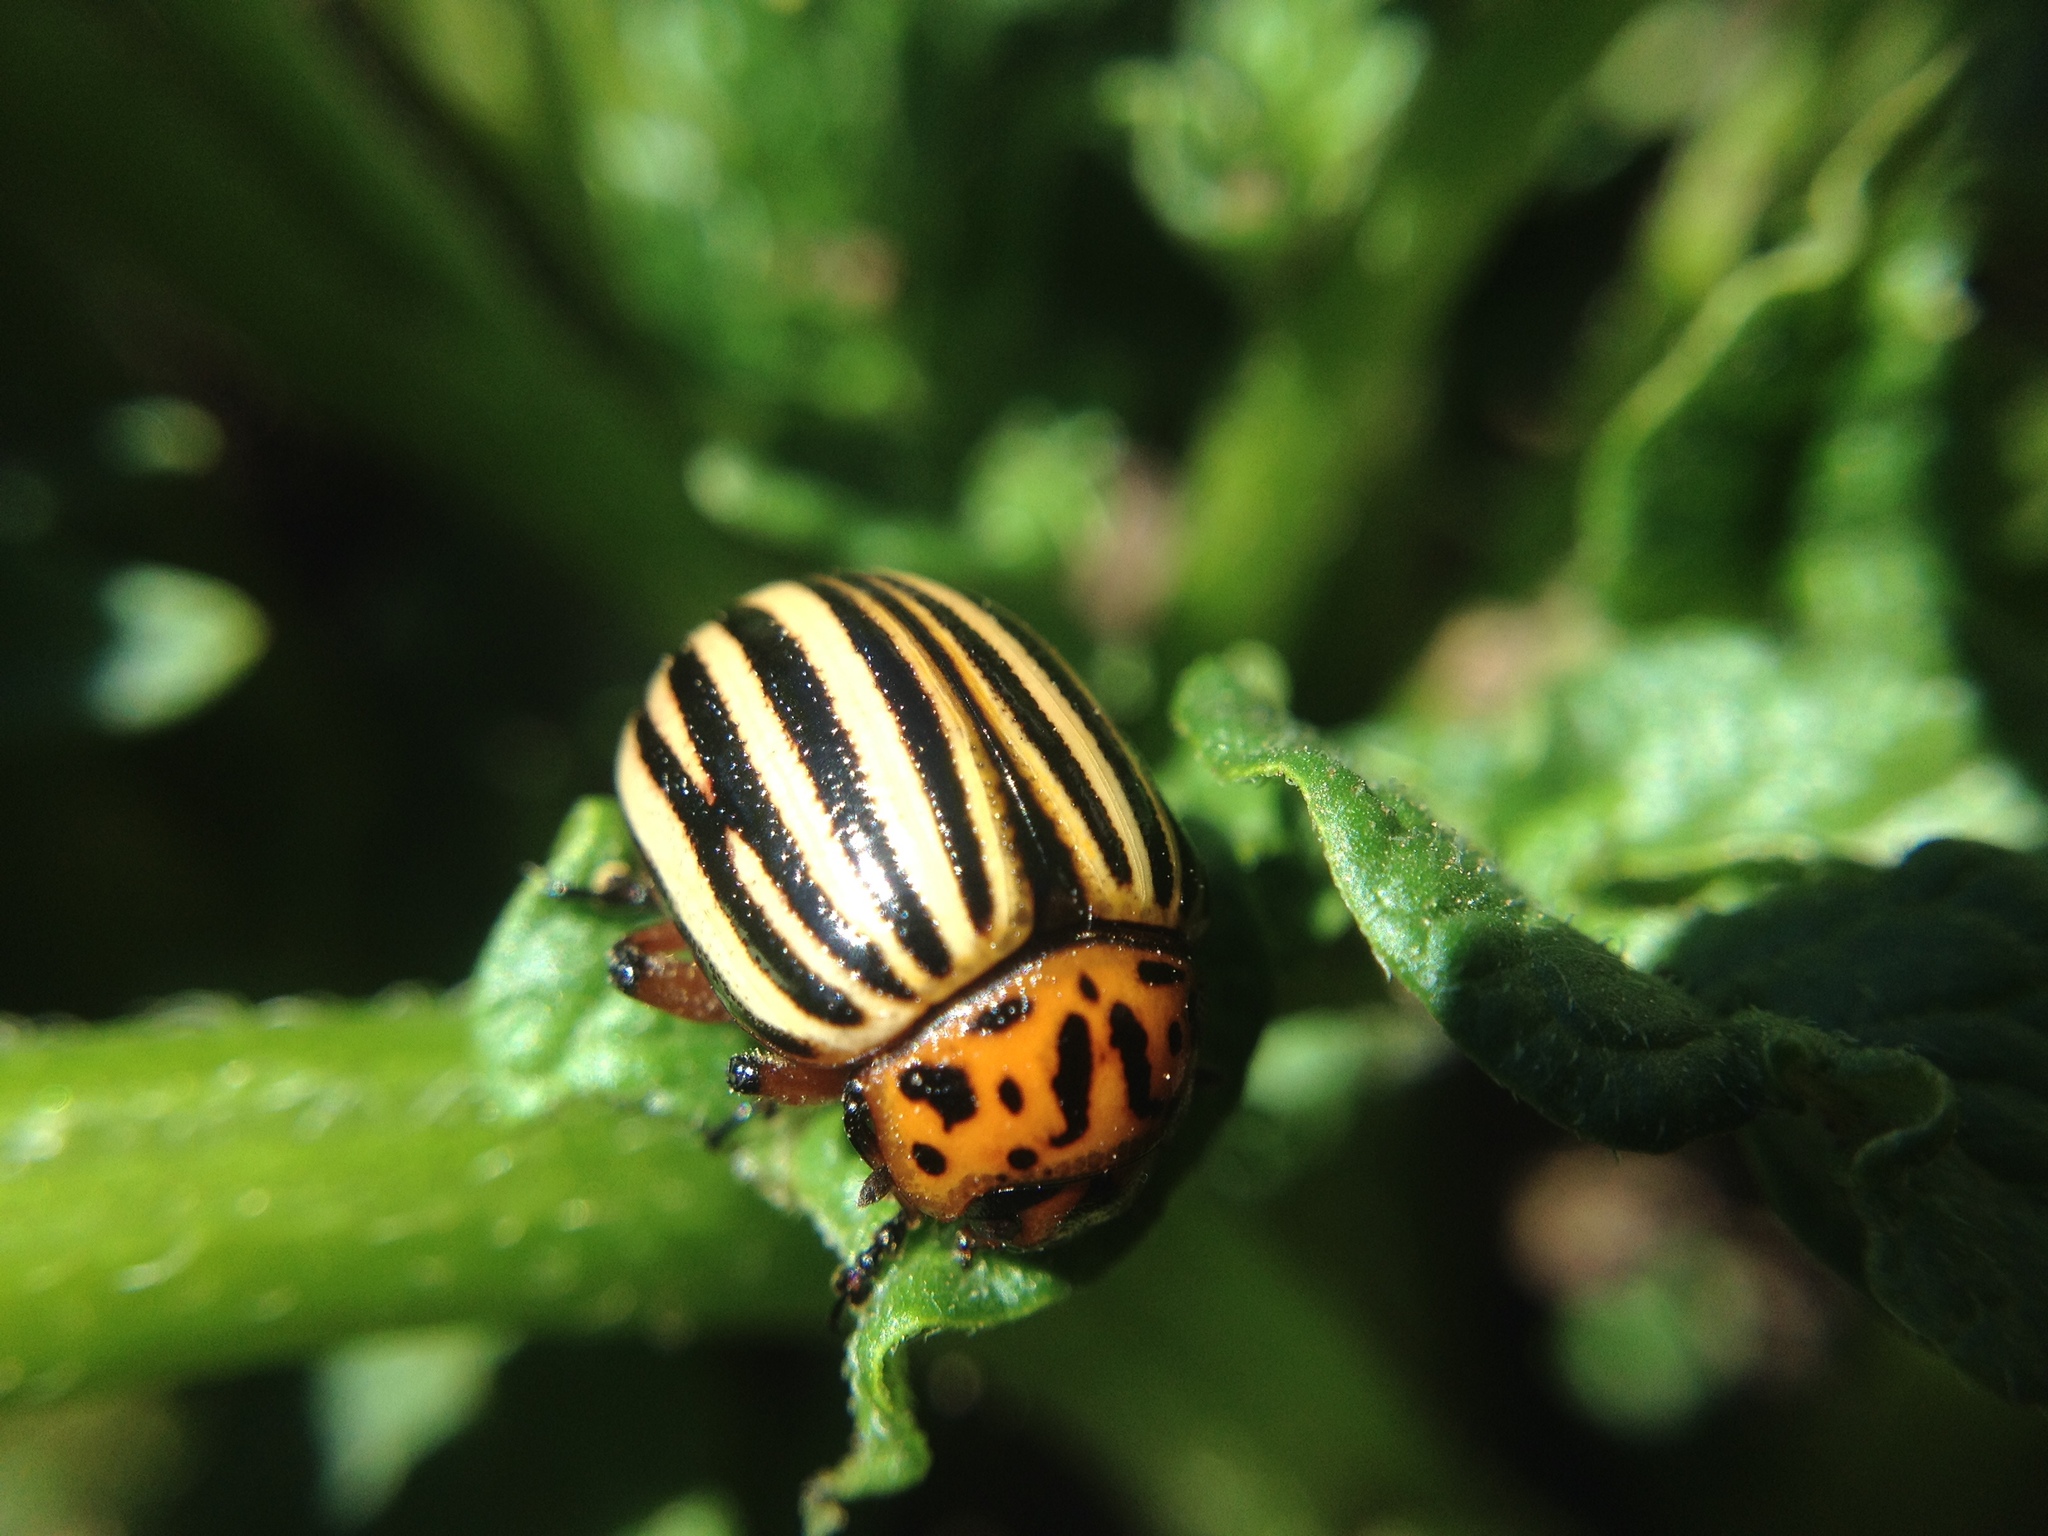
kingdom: Animalia
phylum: Arthropoda
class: Insecta
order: Coleoptera
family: Chrysomelidae
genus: Leptinotarsa
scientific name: Leptinotarsa decemlineata
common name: Colorado potato beetle
